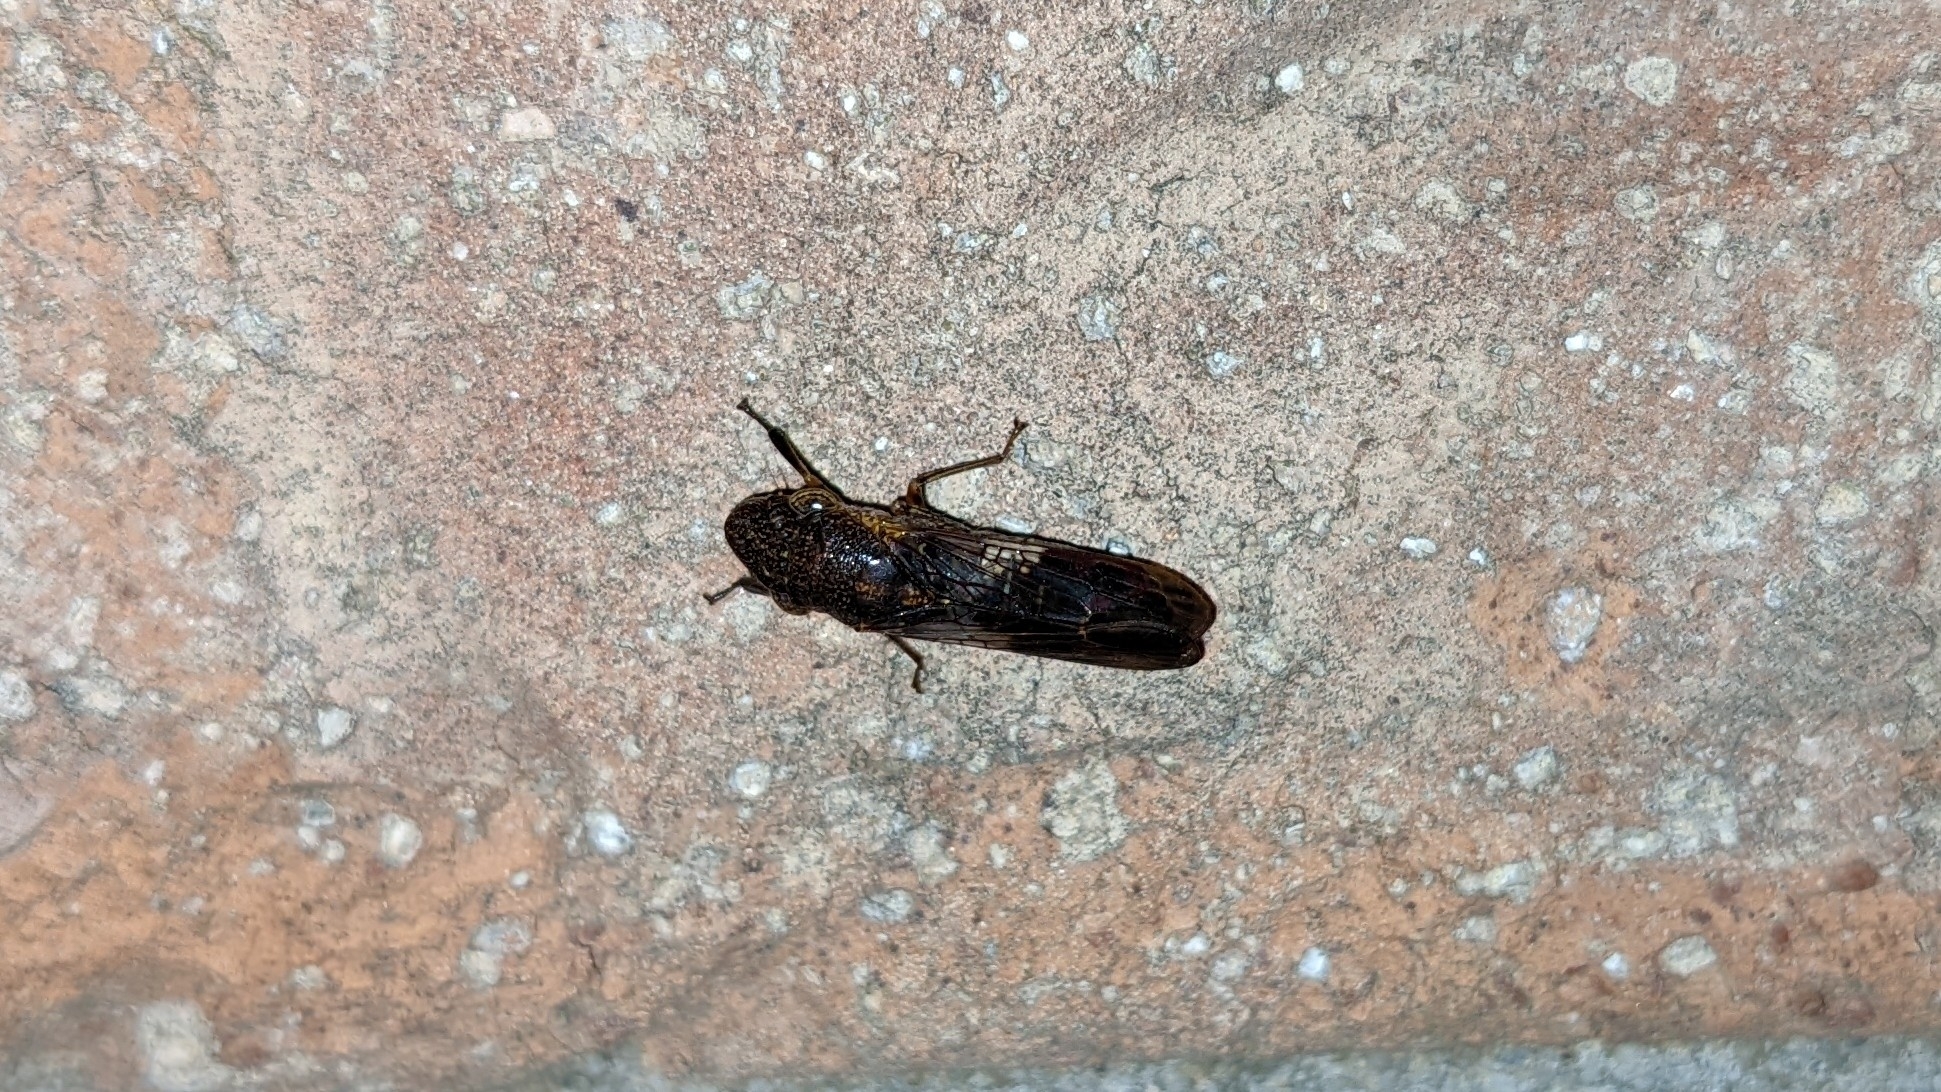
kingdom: Animalia
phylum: Arthropoda
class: Insecta
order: Hemiptera
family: Cicadellidae
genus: Homalodisca
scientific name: Homalodisca vitripennis
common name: Glassy-winged sharpshooter
